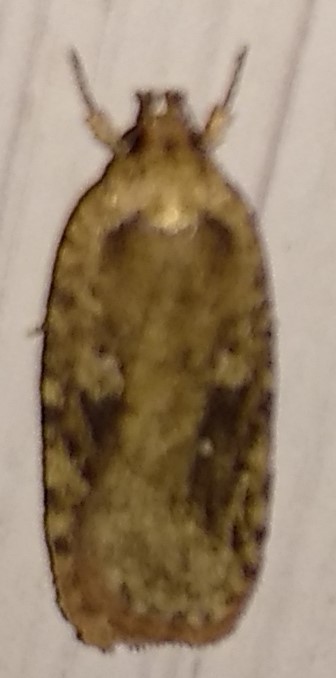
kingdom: Animalia
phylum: Arthropoda
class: Insecta
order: Lepidoptera
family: Depressariidae
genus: Agonopterix
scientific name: Agonopterix pulvipennella
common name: Goldenrod leafffolder
